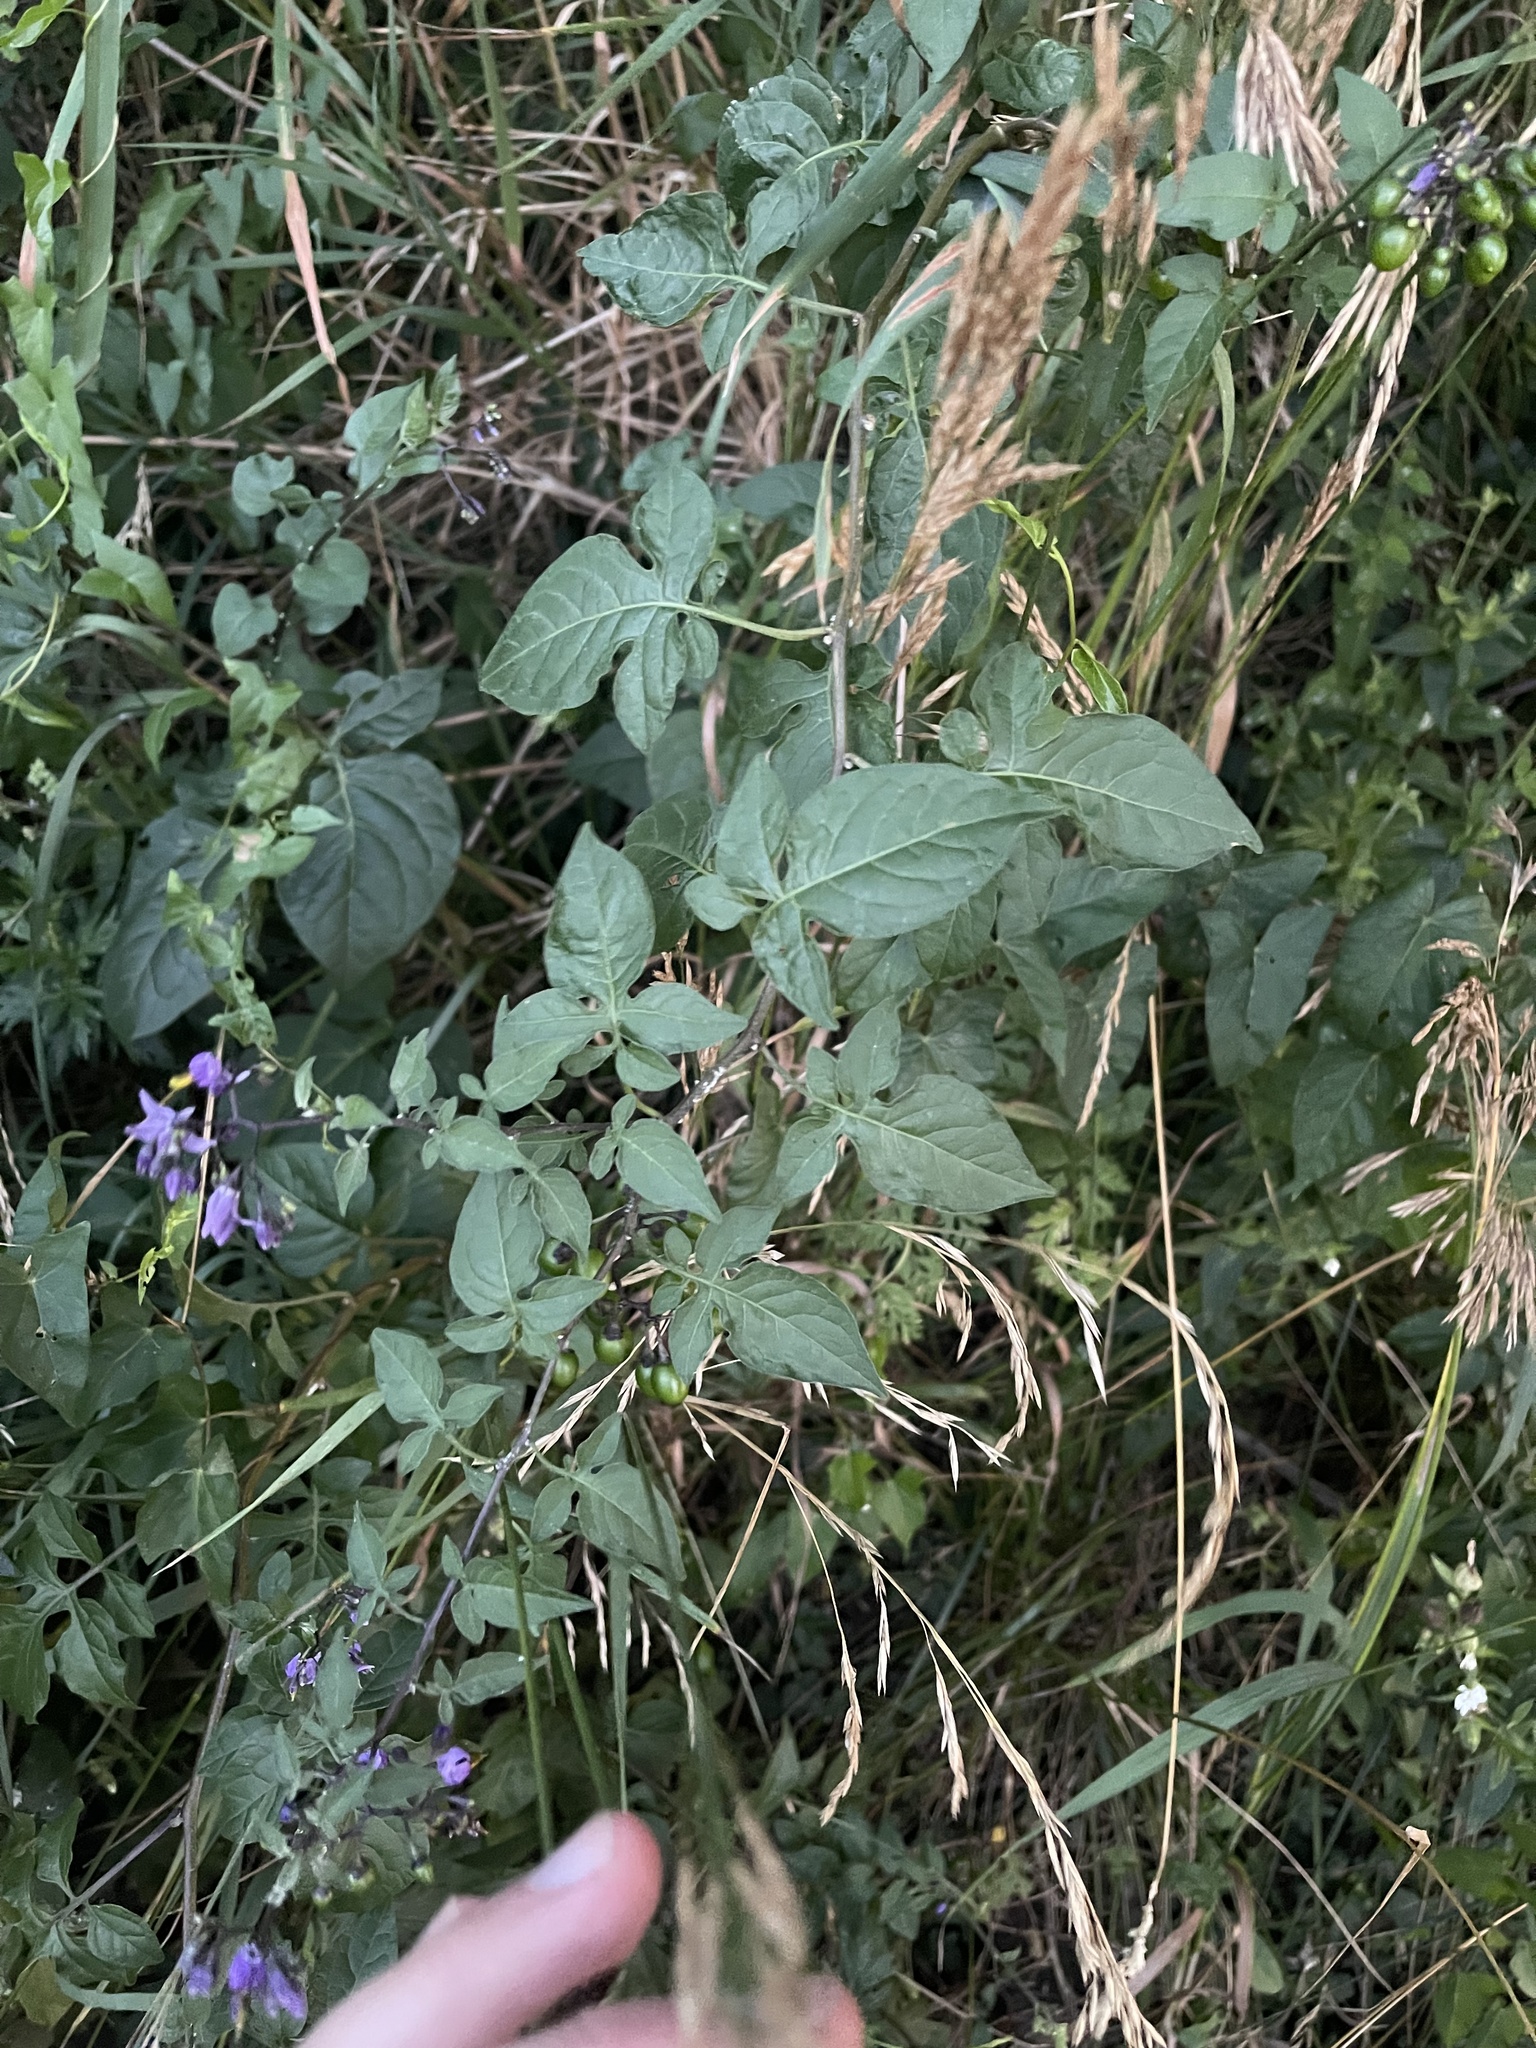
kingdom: Plantae
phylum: Tracheophyta
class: Magnoliopsida
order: Solanales
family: Solanaceae
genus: Solanum
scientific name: Solanum dulcamara
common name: Climbing nightshade
